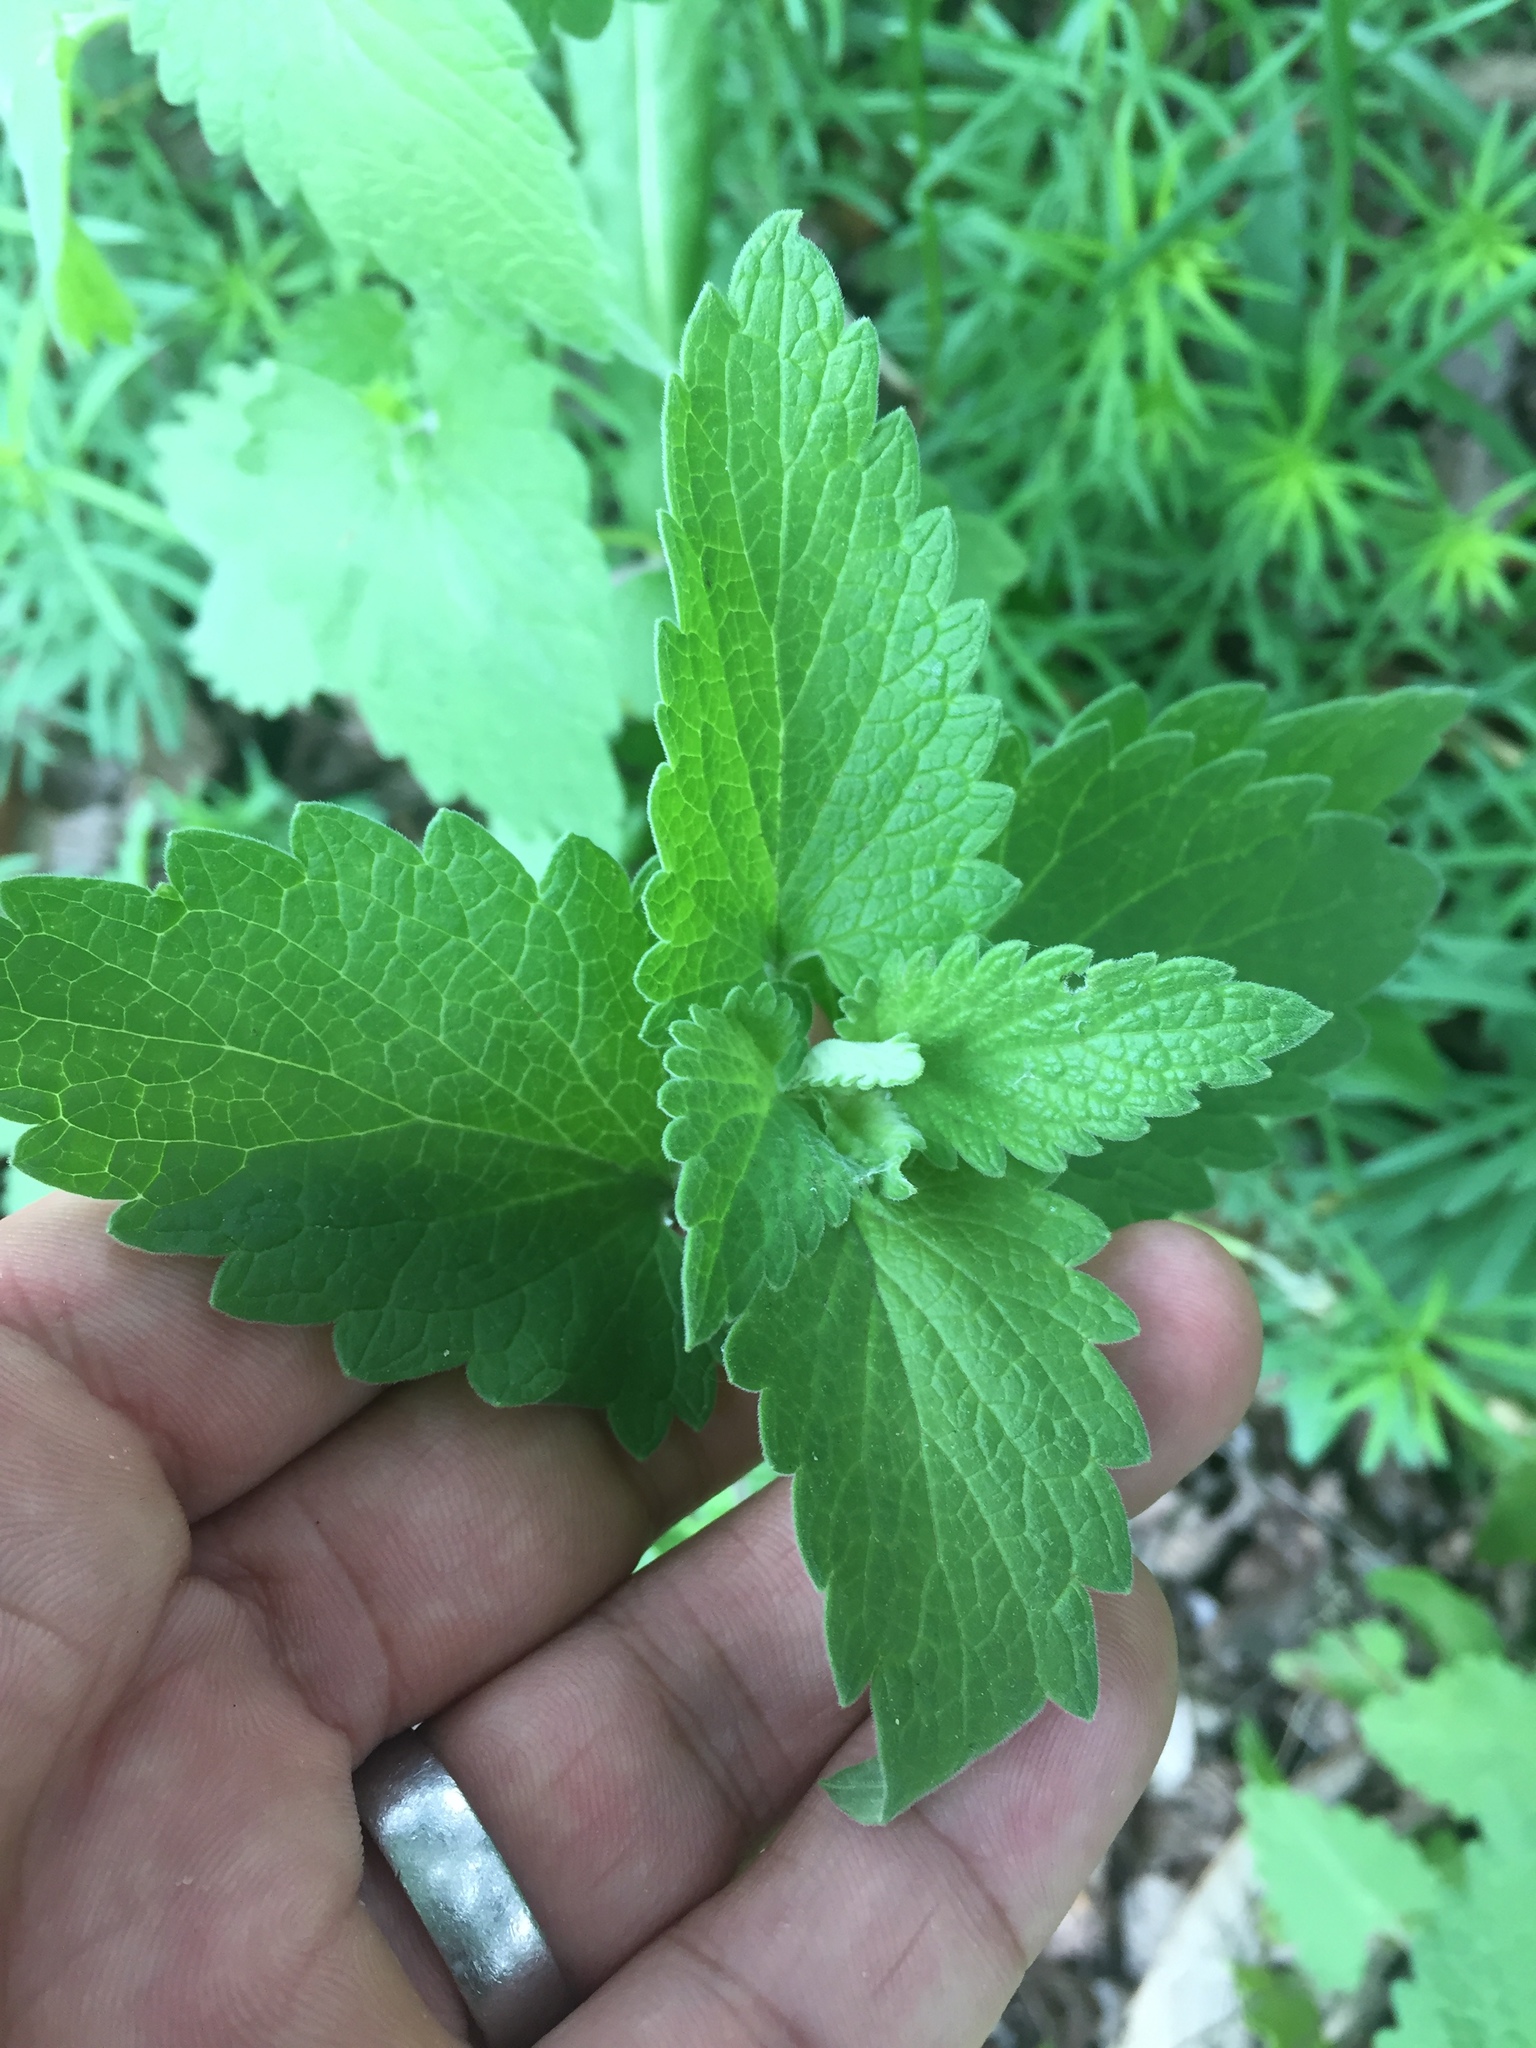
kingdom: Plantae
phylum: Tracheophyta
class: Magnoliopsida
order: Lamiales
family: Lamiaceae
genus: Nepeta
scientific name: Nepeta cataria
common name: Catnip
